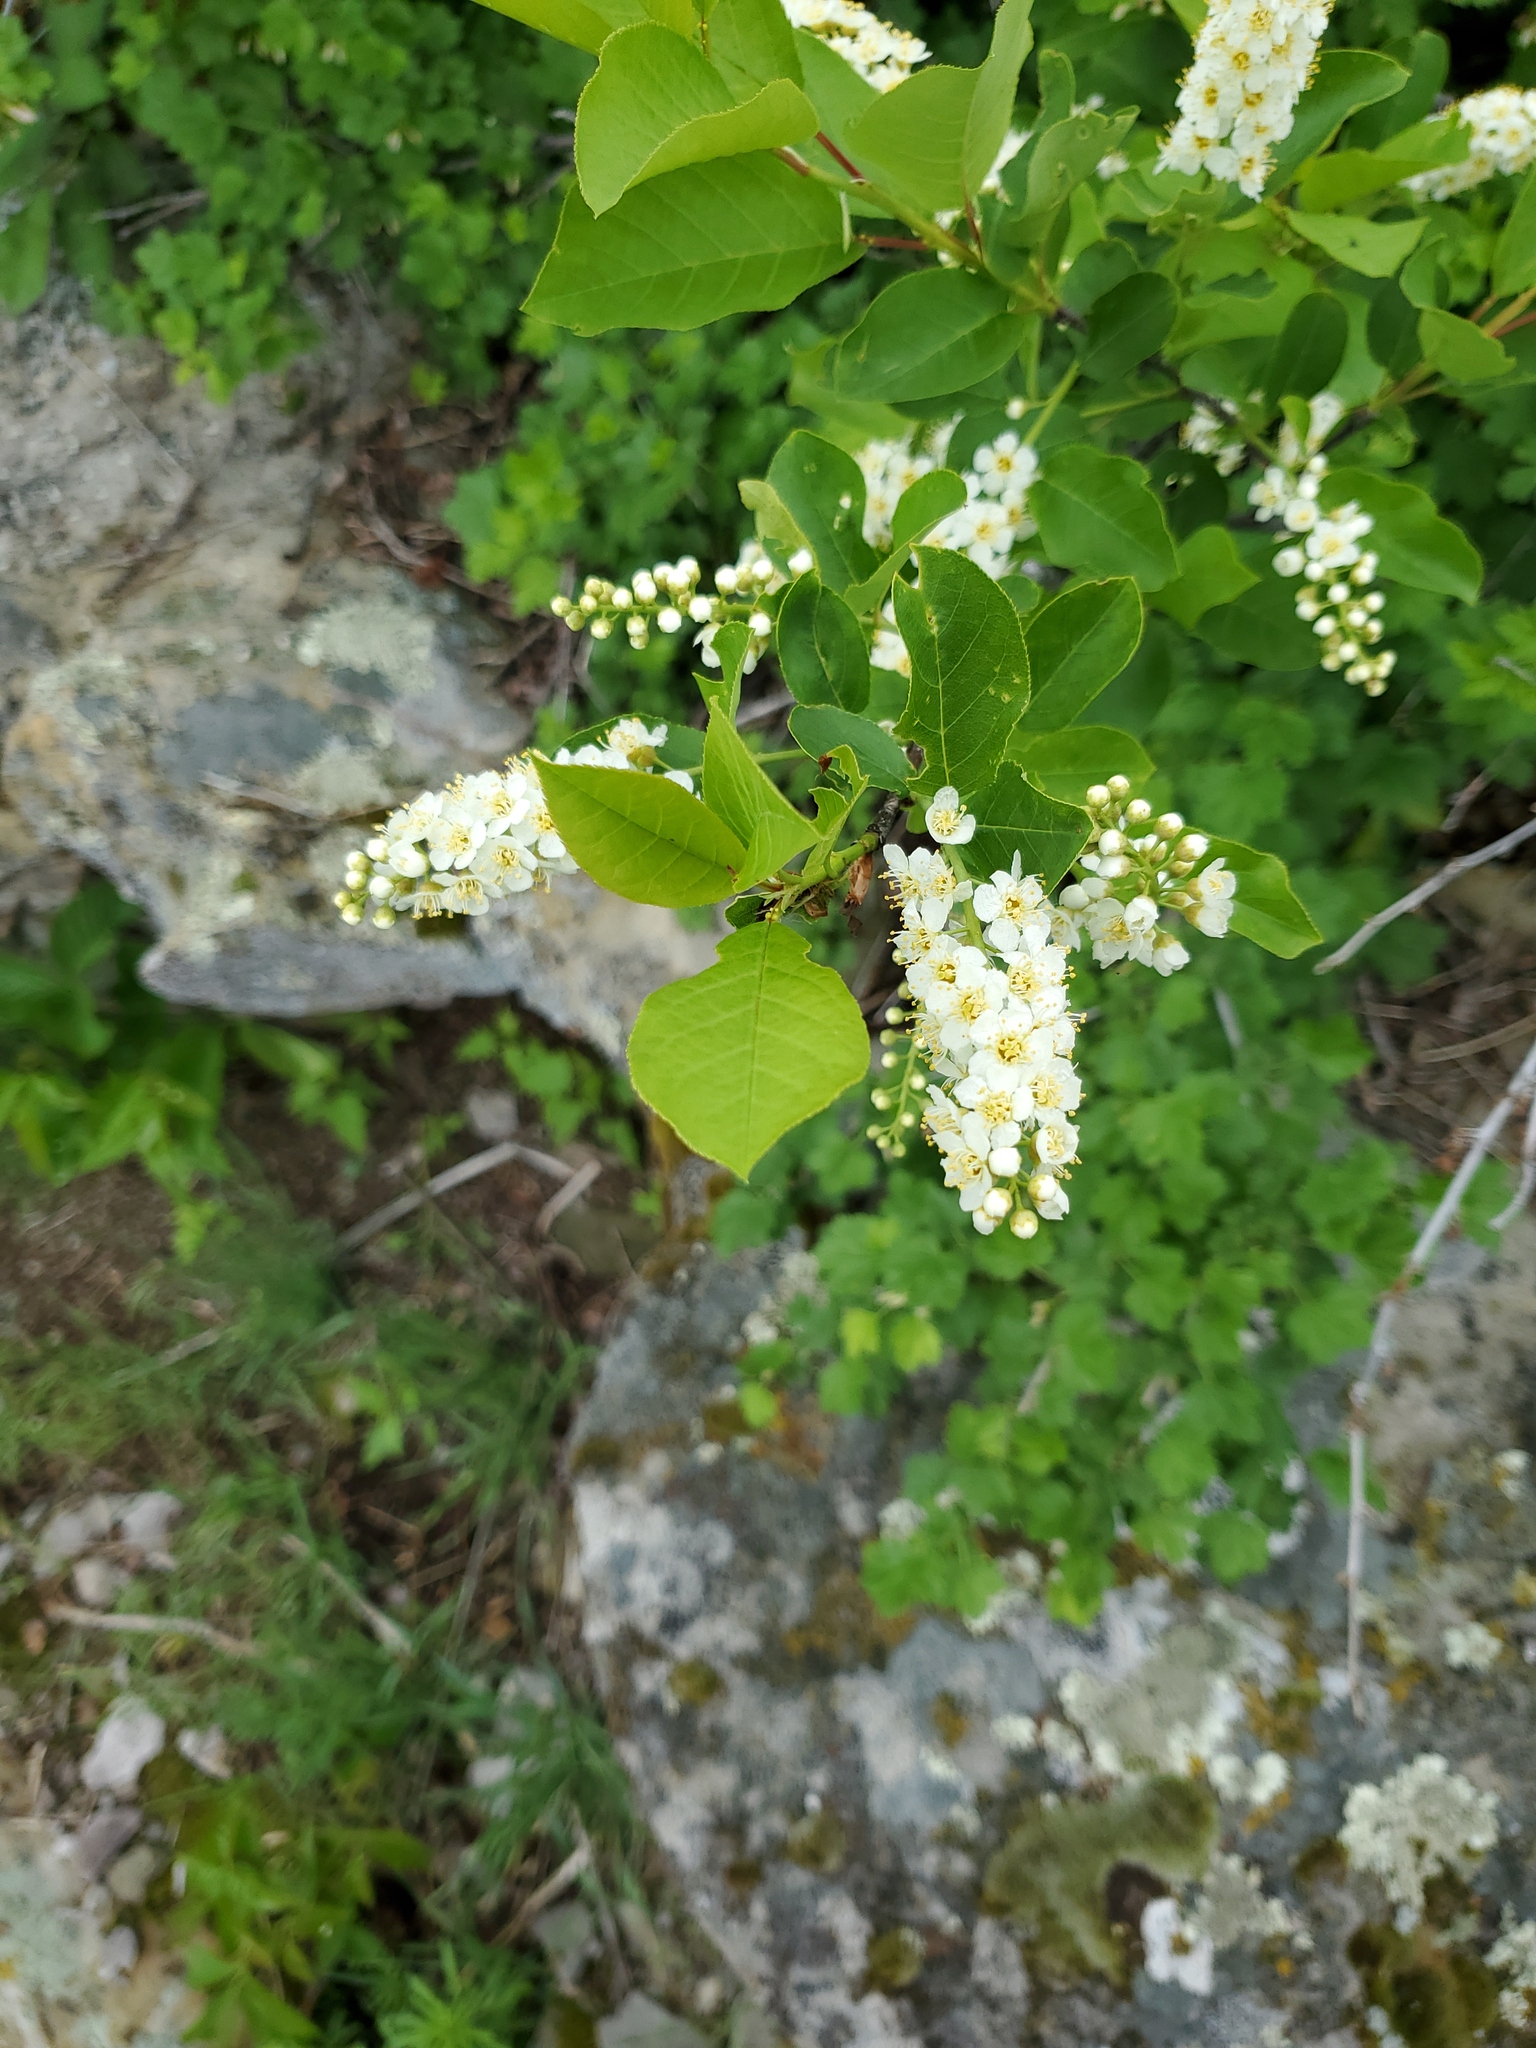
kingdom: Plantae
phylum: Tracheophyta
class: Magnoliopsida
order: Rosales
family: Rosaceae
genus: Prunus
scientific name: Prunus virginiana
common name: Chokecherry
